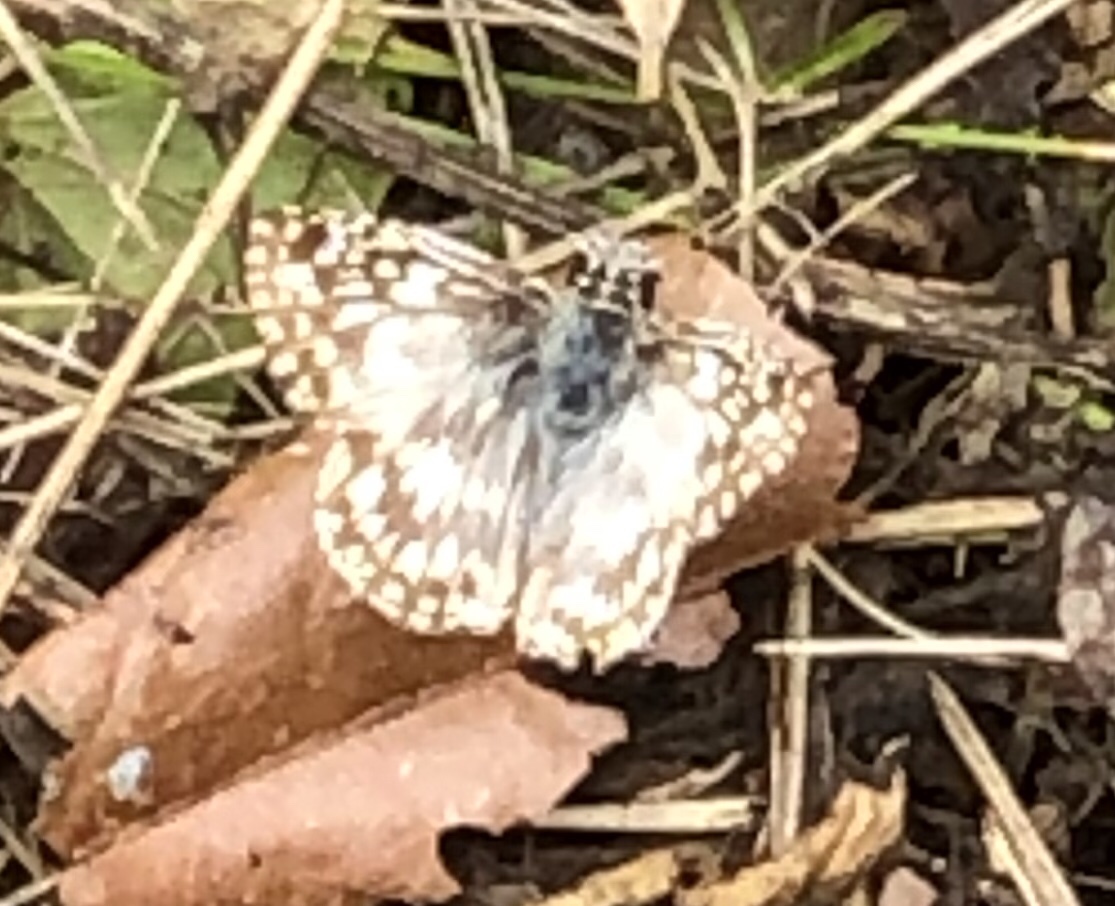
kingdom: Animalia
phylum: Arthropoda
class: Insecta
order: Lepidoptera
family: Hesperiidae
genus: Pyrgus
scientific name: Pyrgus oileus
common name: Tropical checkered-skipper
